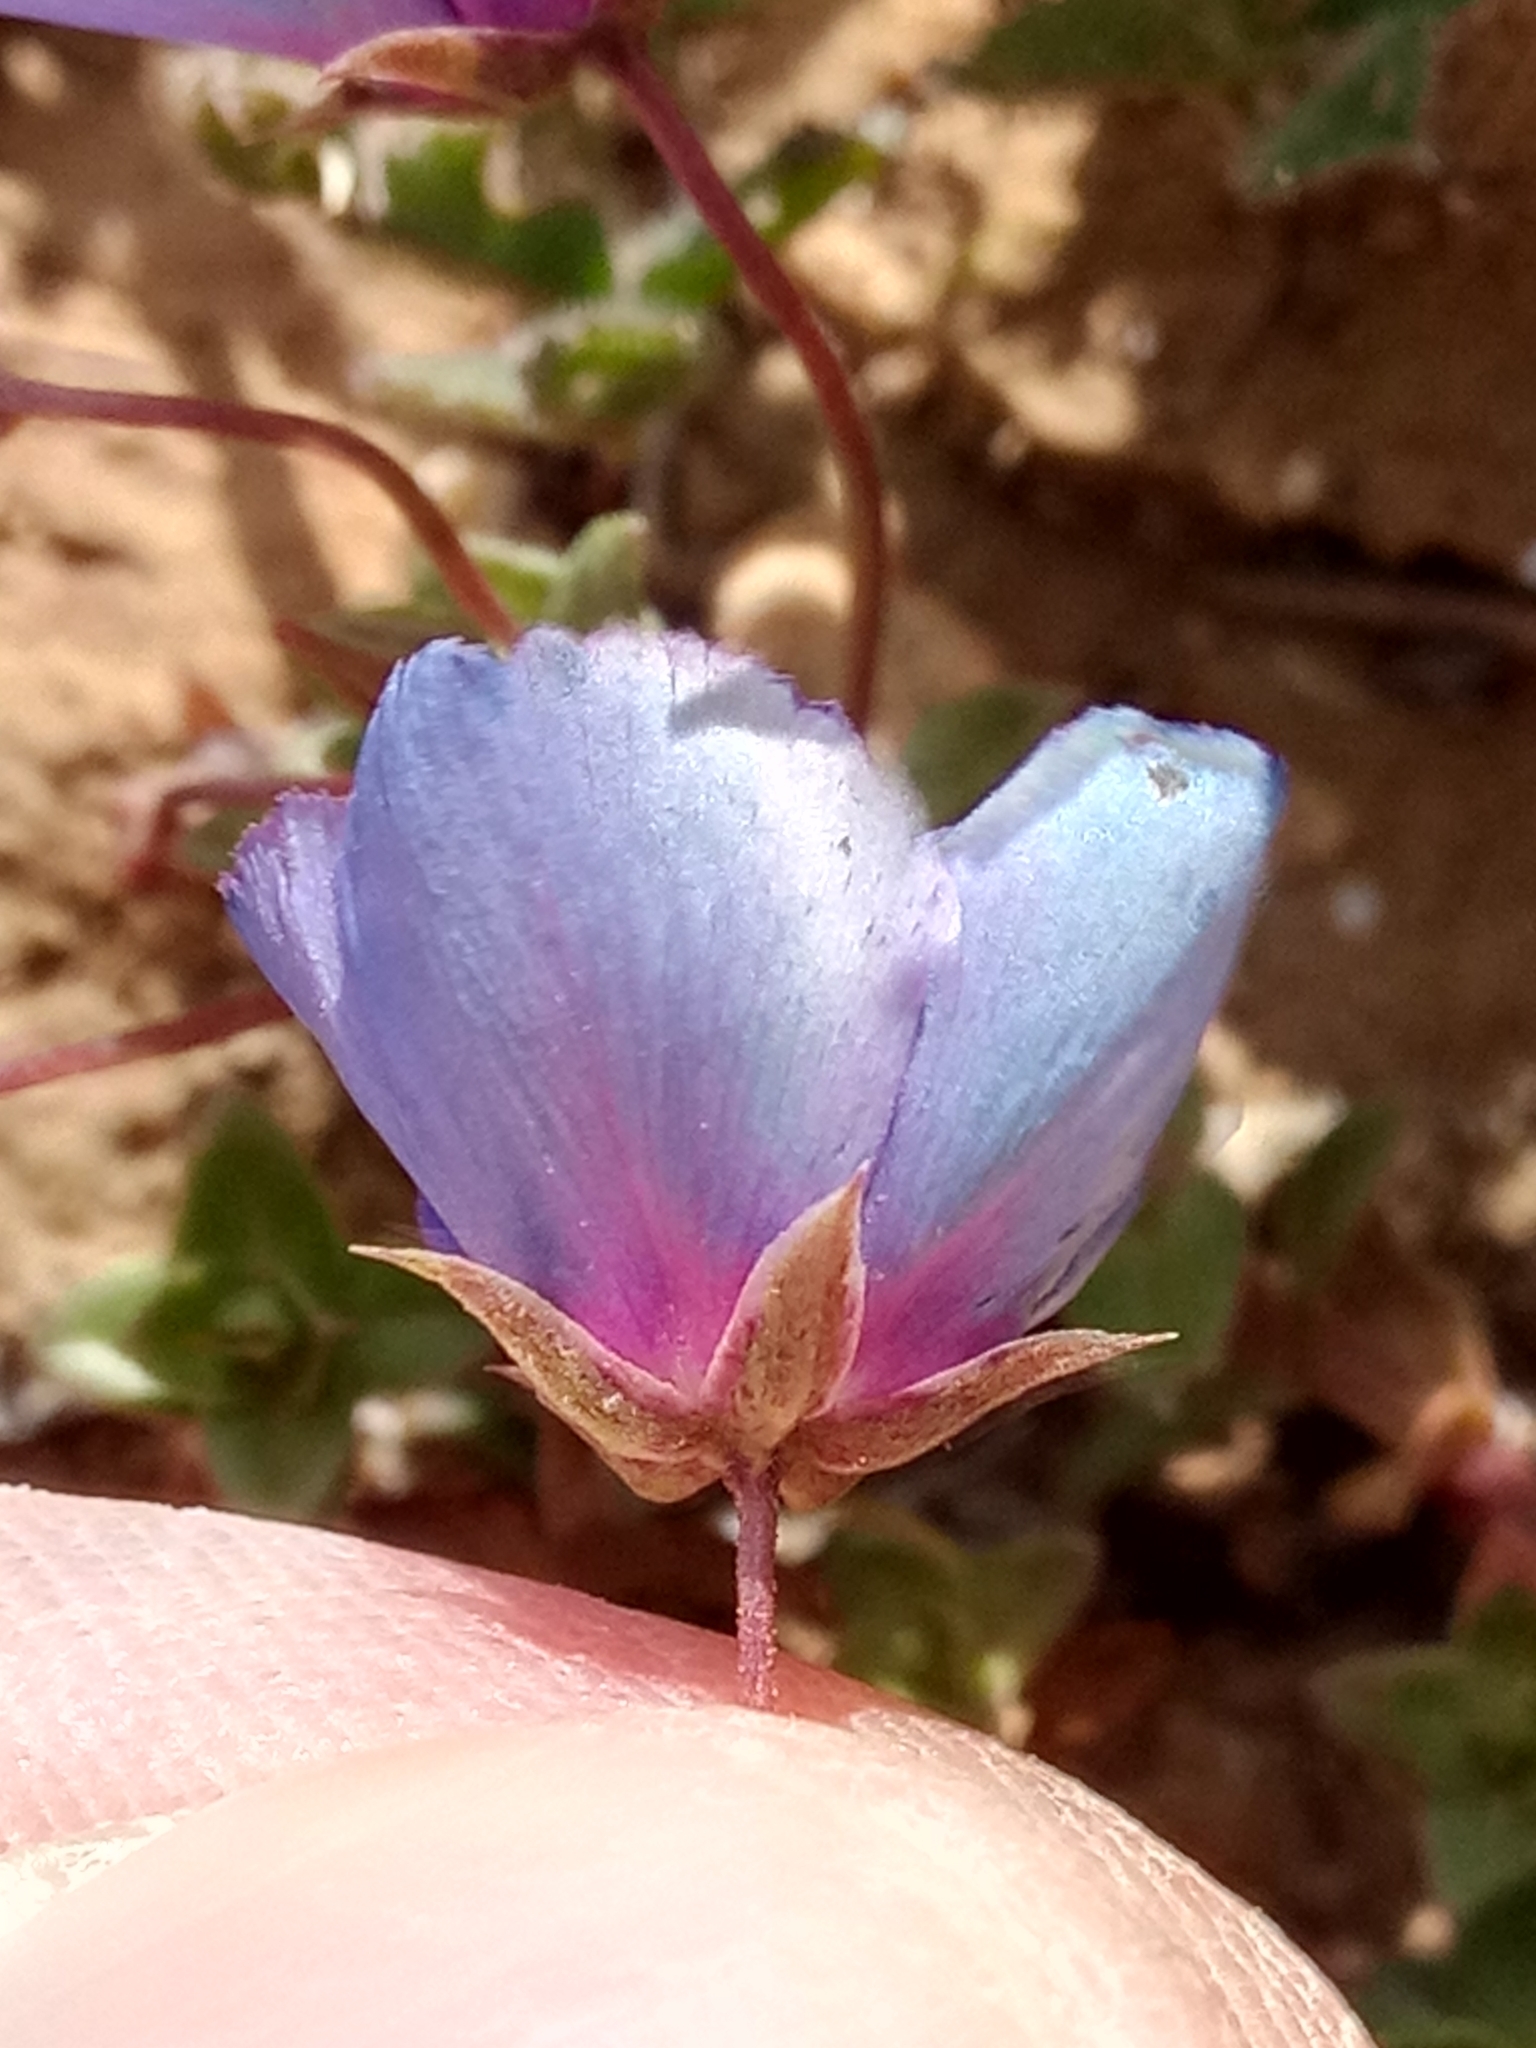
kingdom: Plantae
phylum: Tracheophyta
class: Magnoliopsida
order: Ericales
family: Primulaceae
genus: Lysimachia
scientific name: Lysimachia monelli
